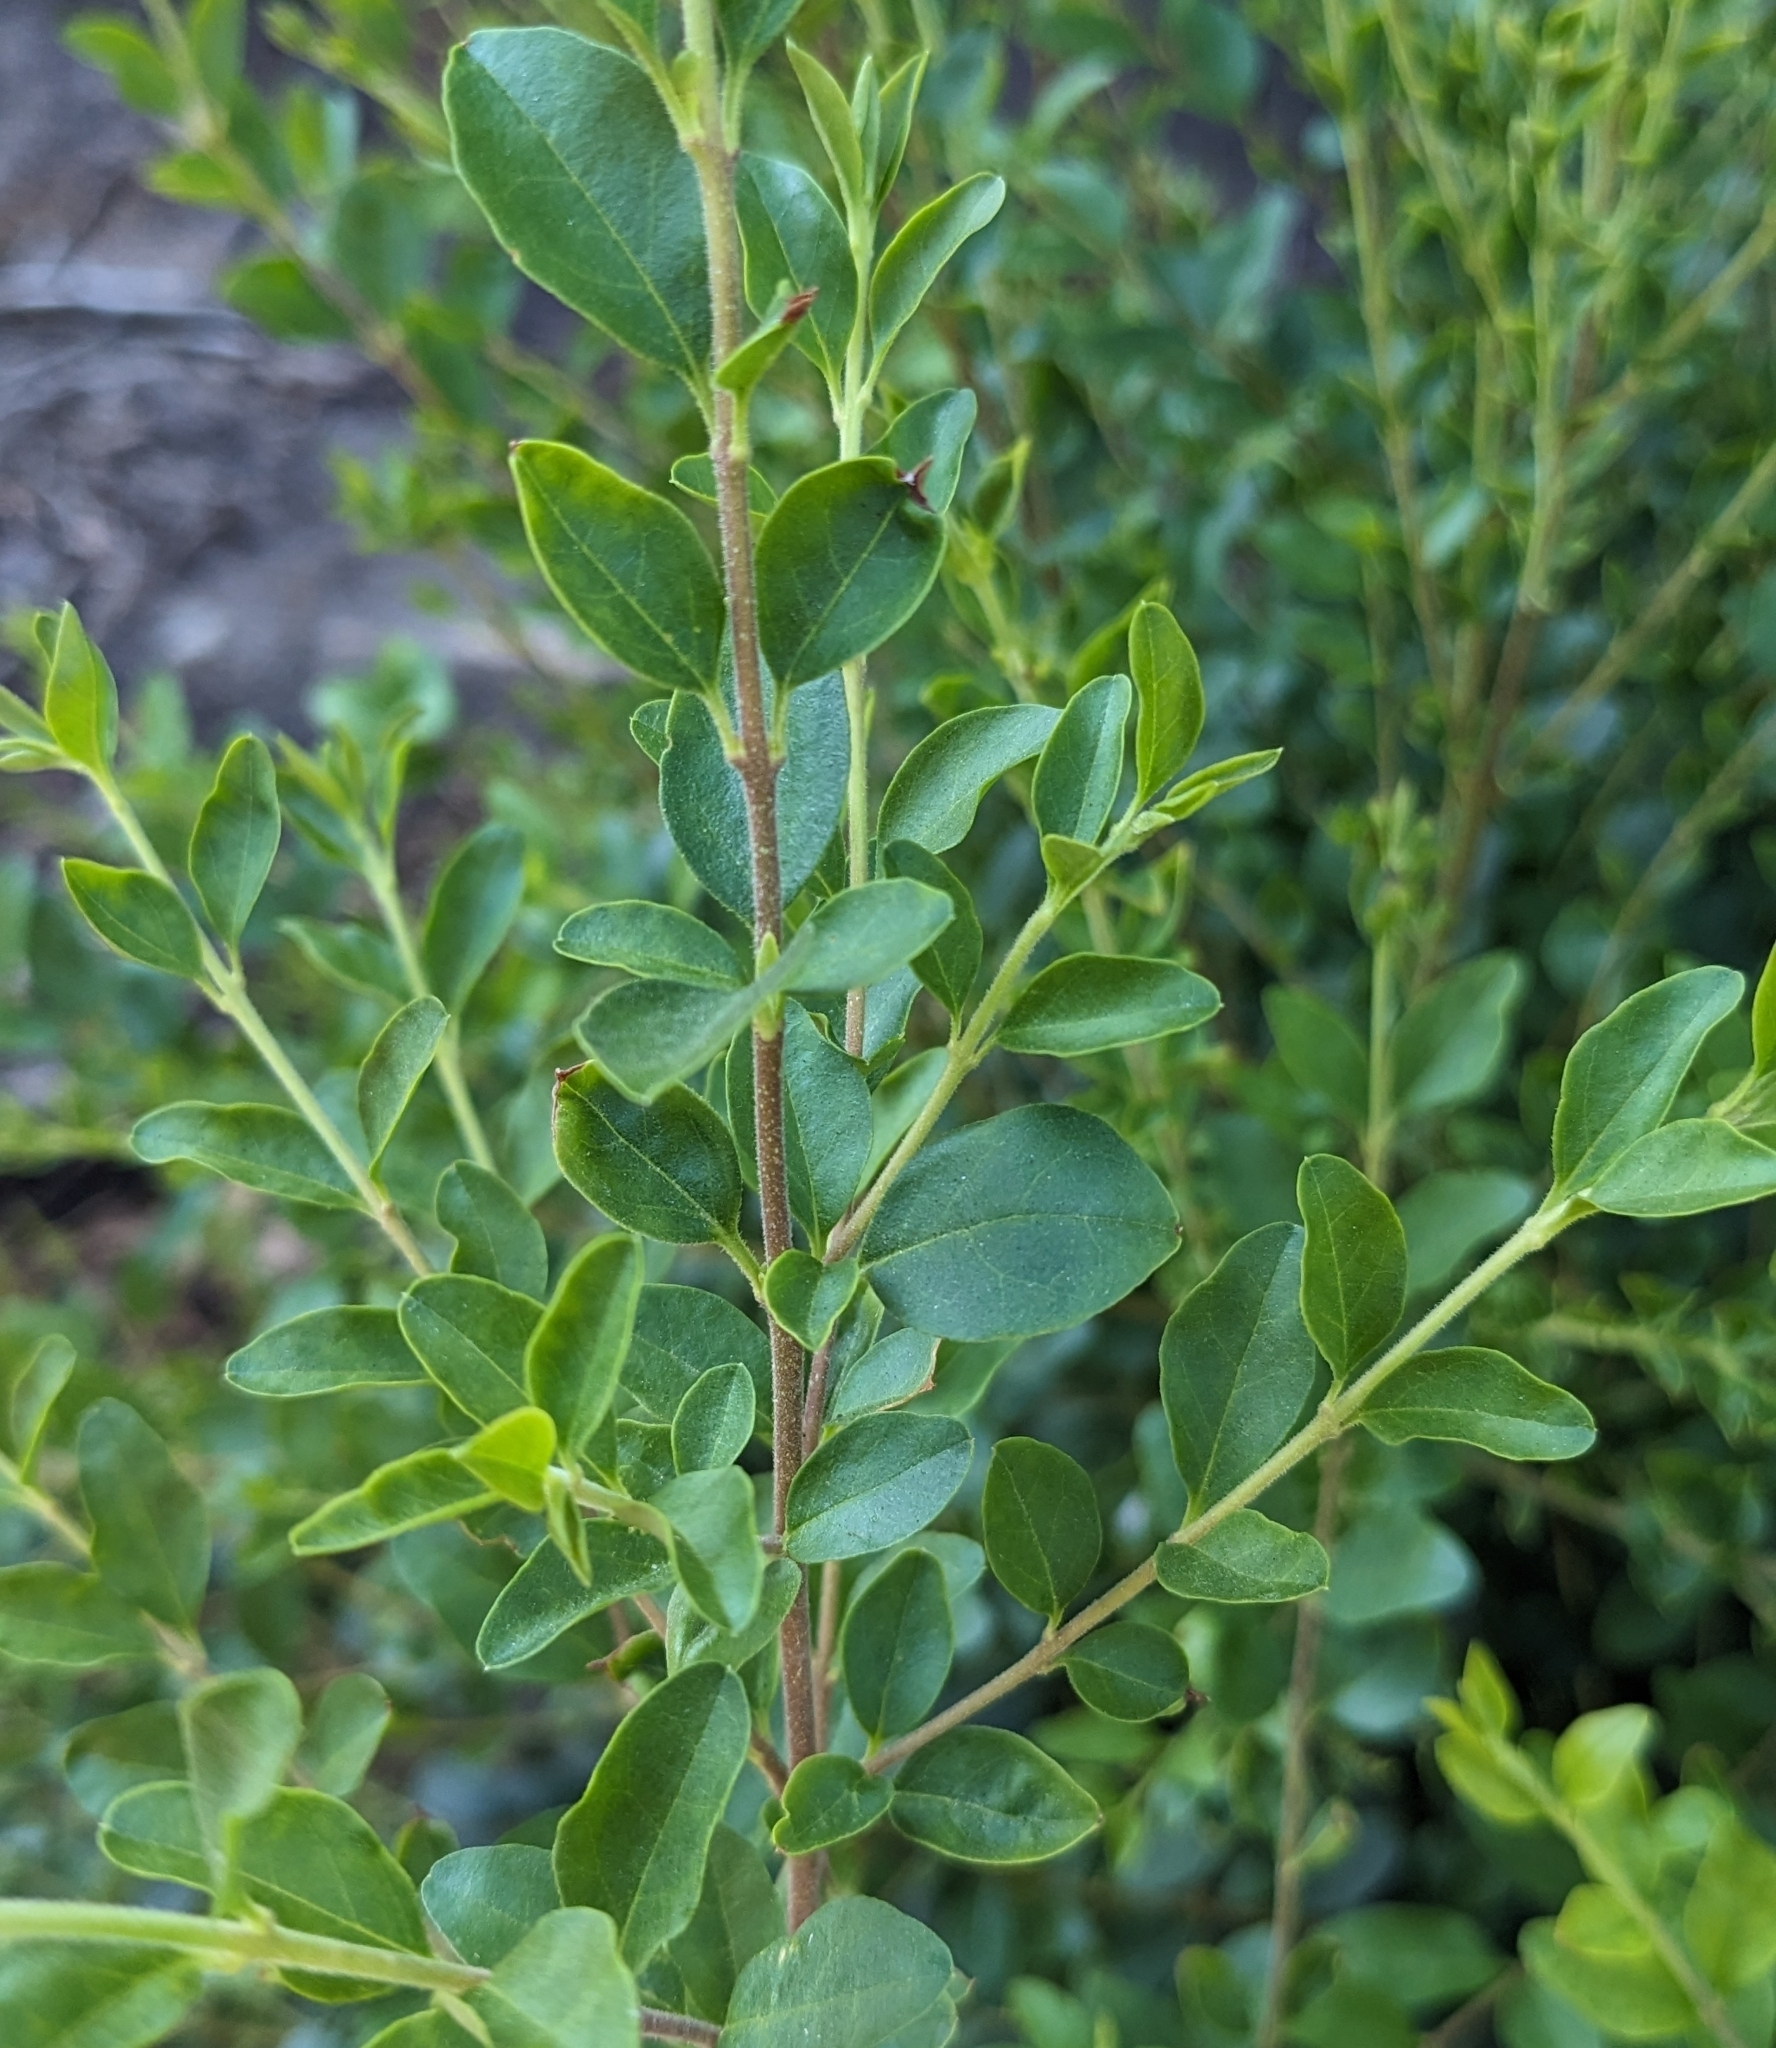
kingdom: Plantae
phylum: Tracheophyta
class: Magnoliopsida
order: Lamiales
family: Oleaceae
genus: Ligustrum
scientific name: Ligustrum sinense
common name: Chinese privet
